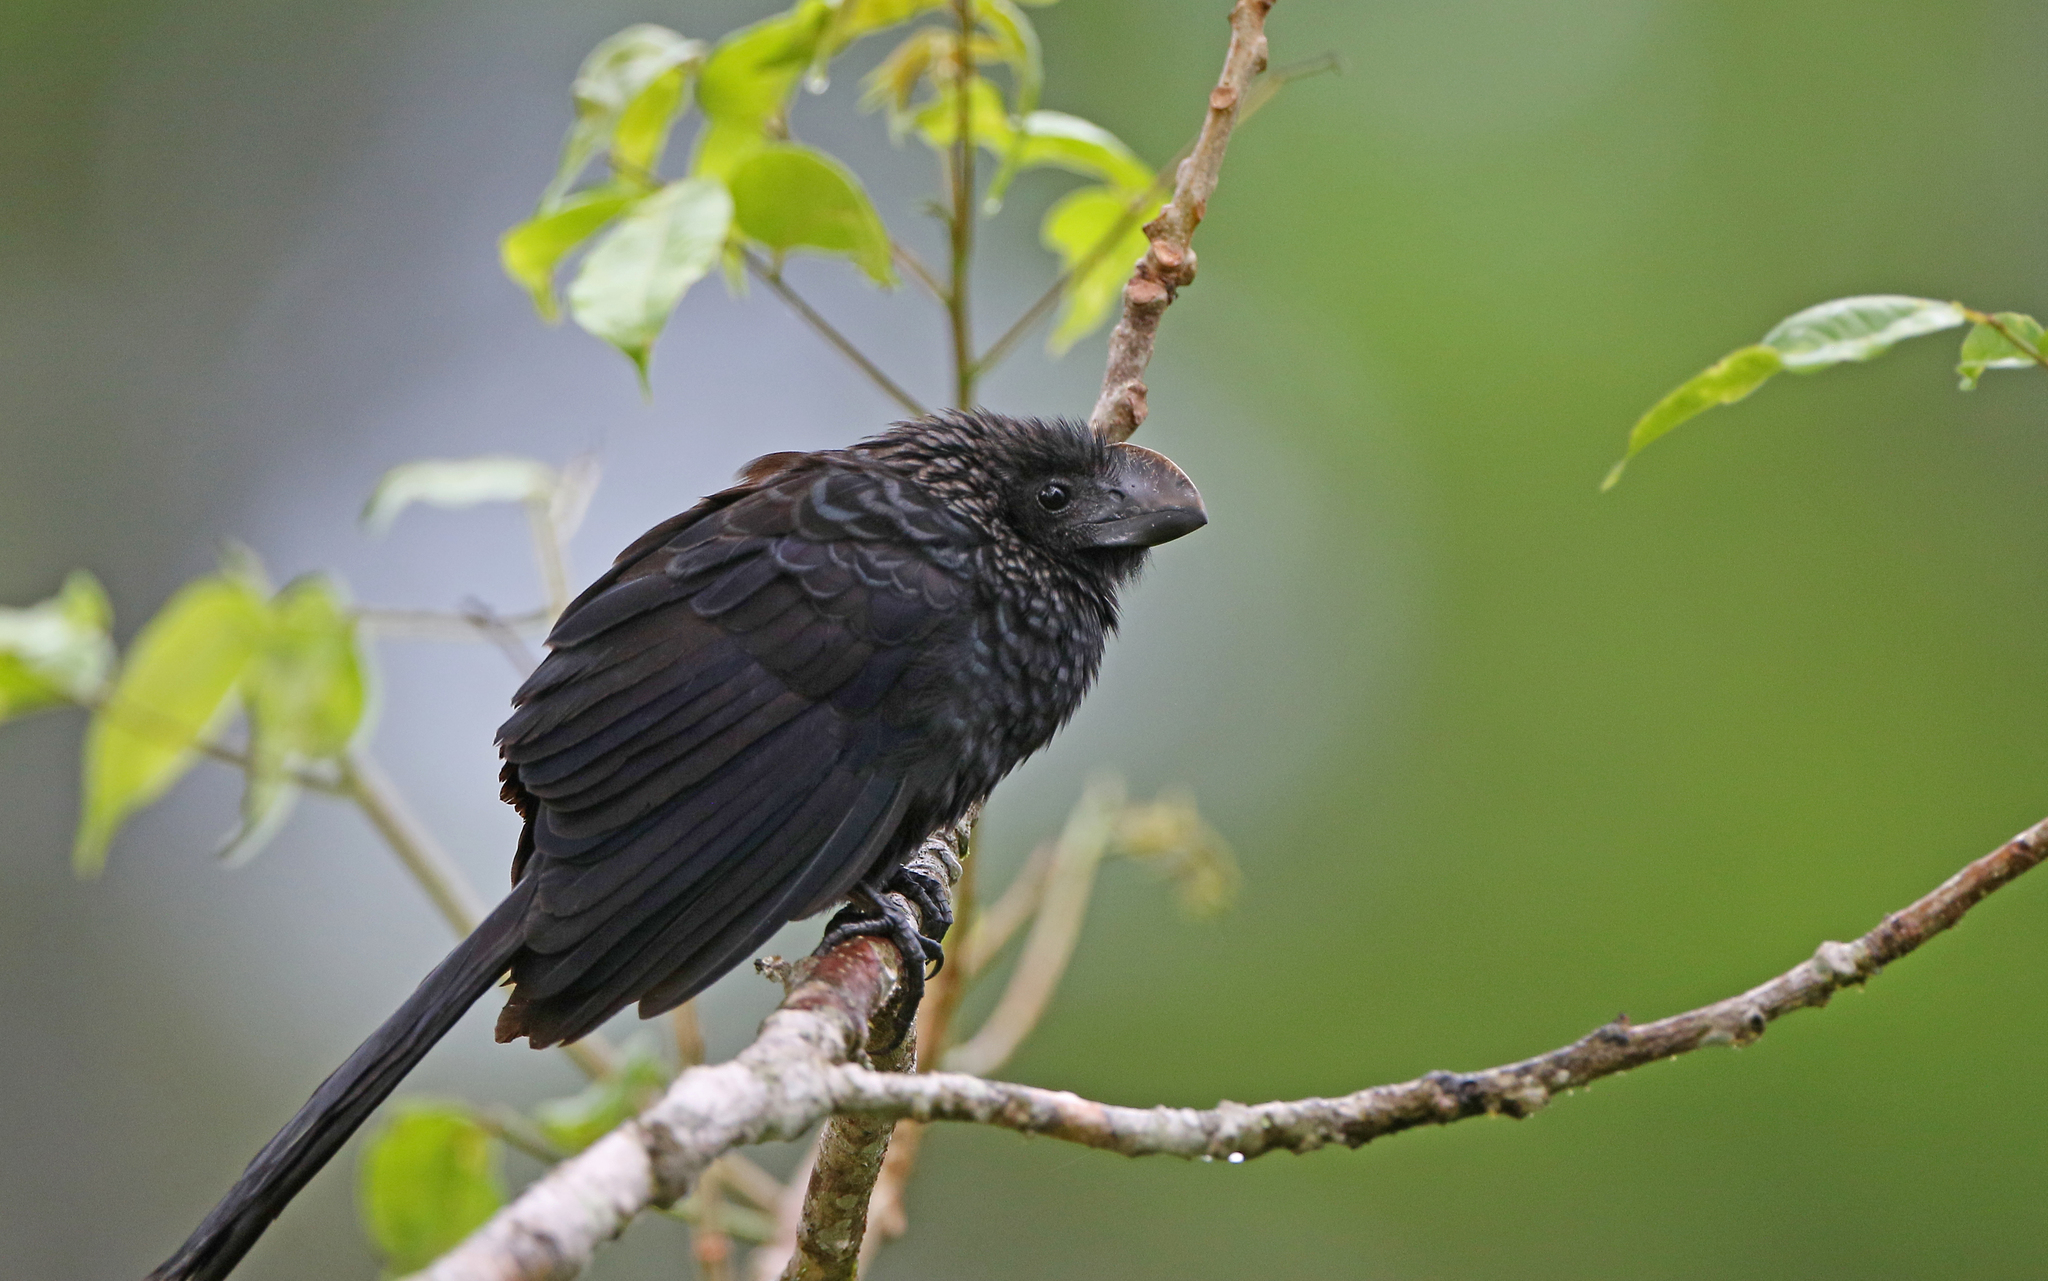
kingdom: Animalia
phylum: Chordata
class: Aves
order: Cuculiformes
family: Cuculidae
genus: Crotophaga
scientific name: Crotophaga ani
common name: Smooth-billed ani
